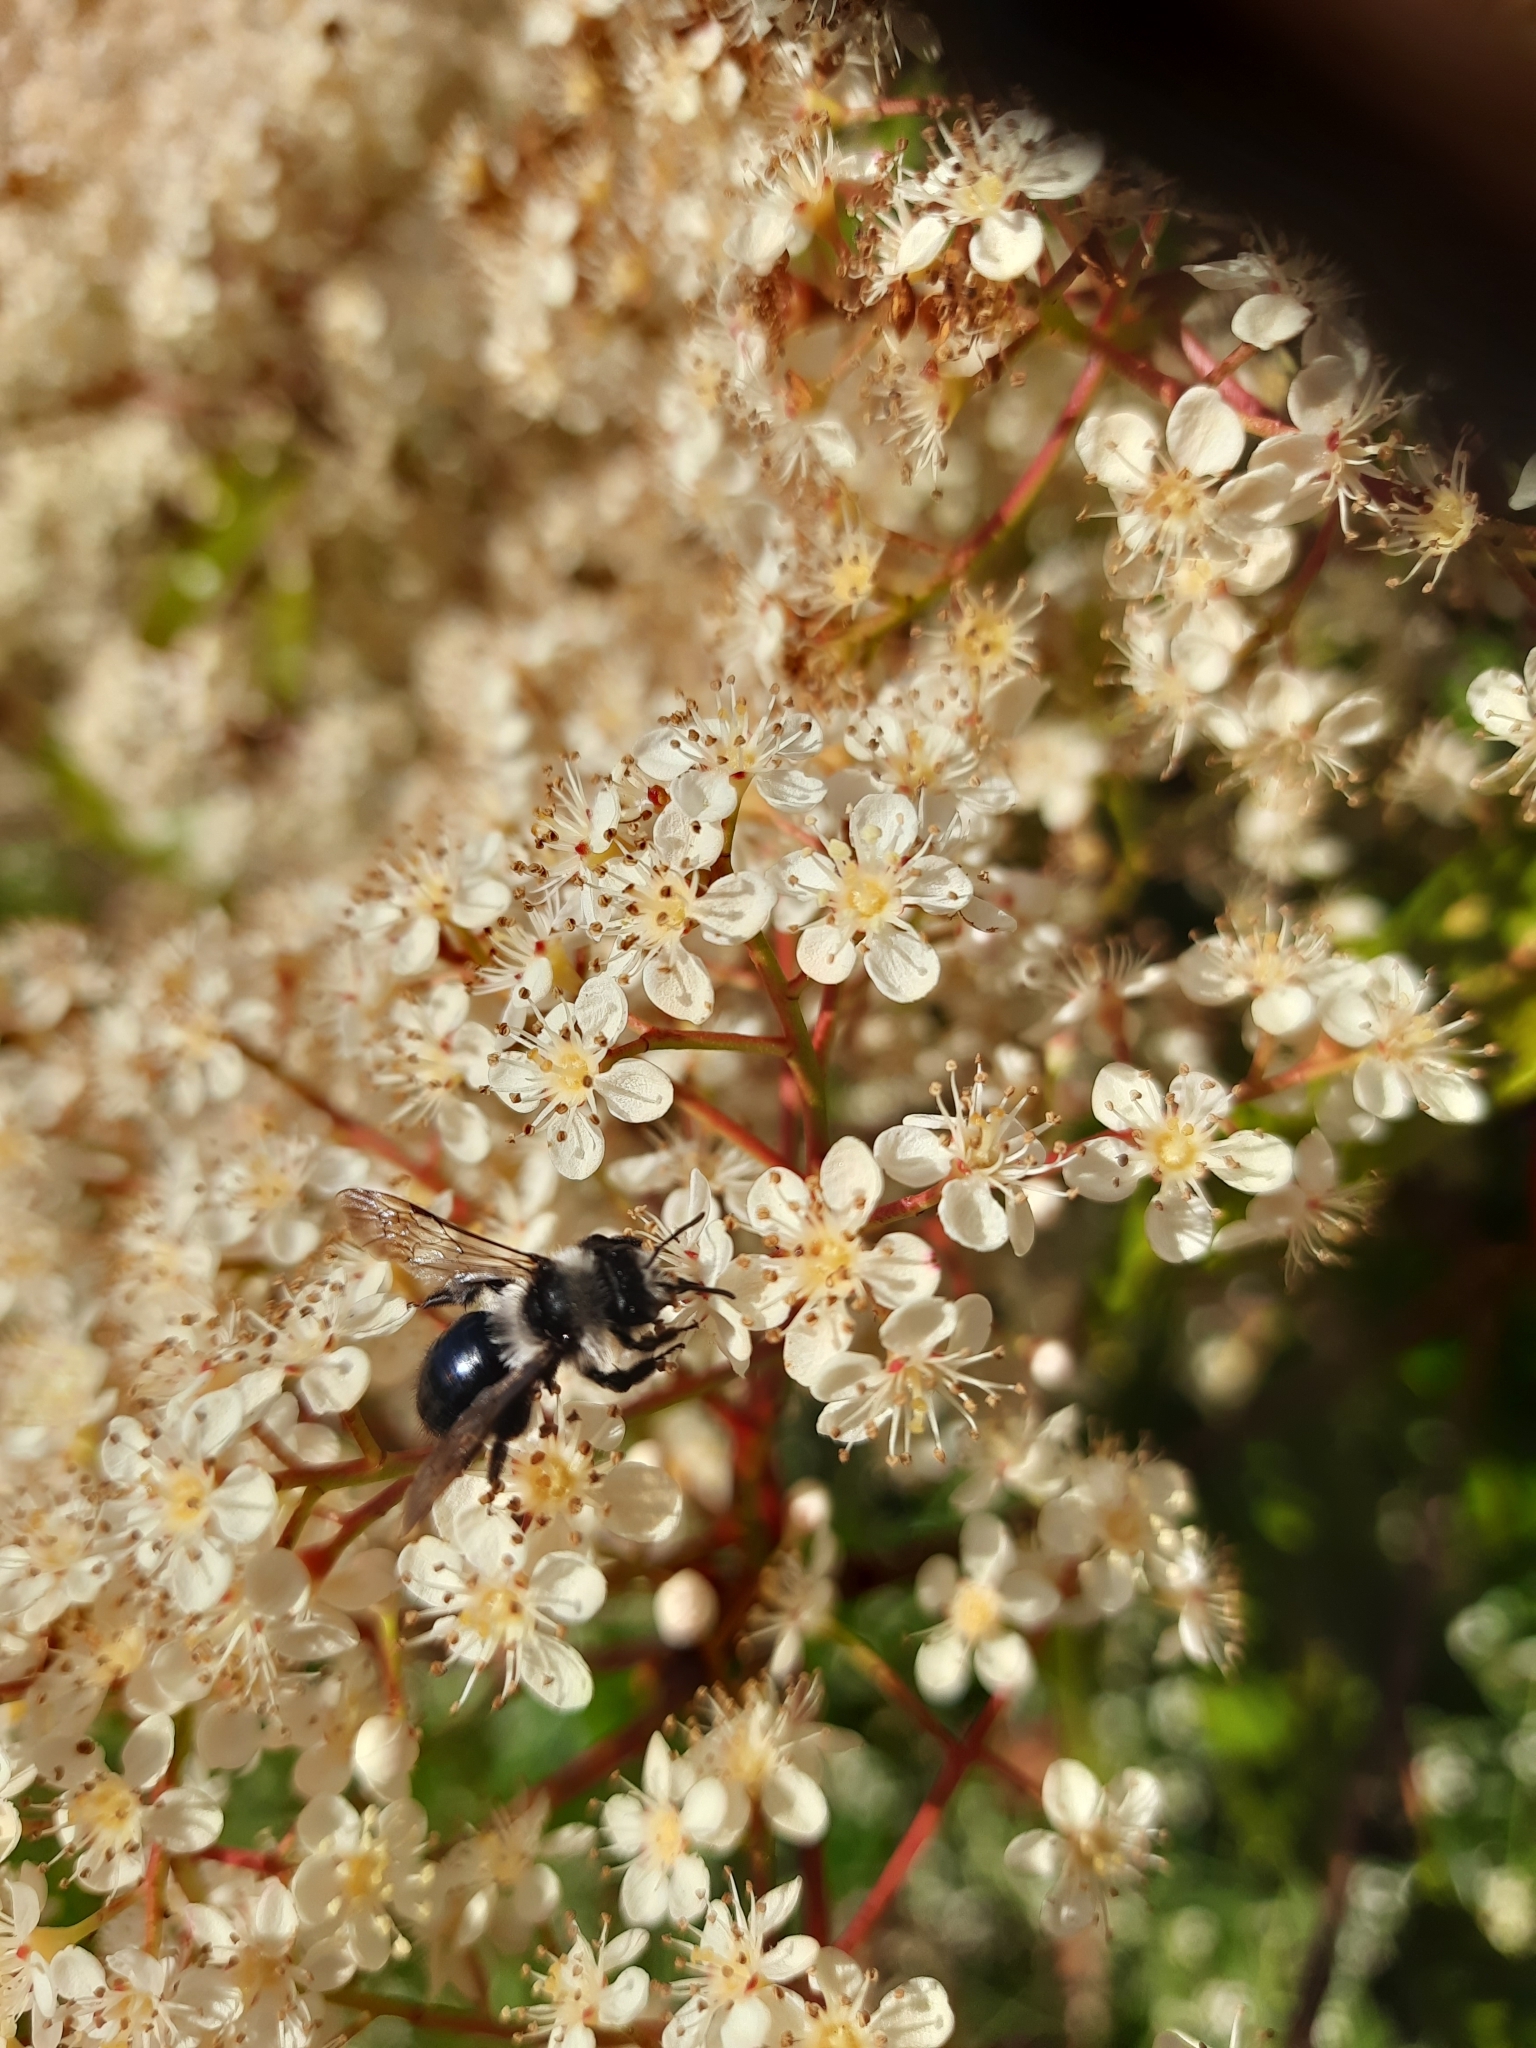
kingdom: Animalia
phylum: Arthropoda
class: Insecta
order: Hymenoptera
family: Andrenidae
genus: Andrena
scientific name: Andrena cineraria
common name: Ashy mining bee
